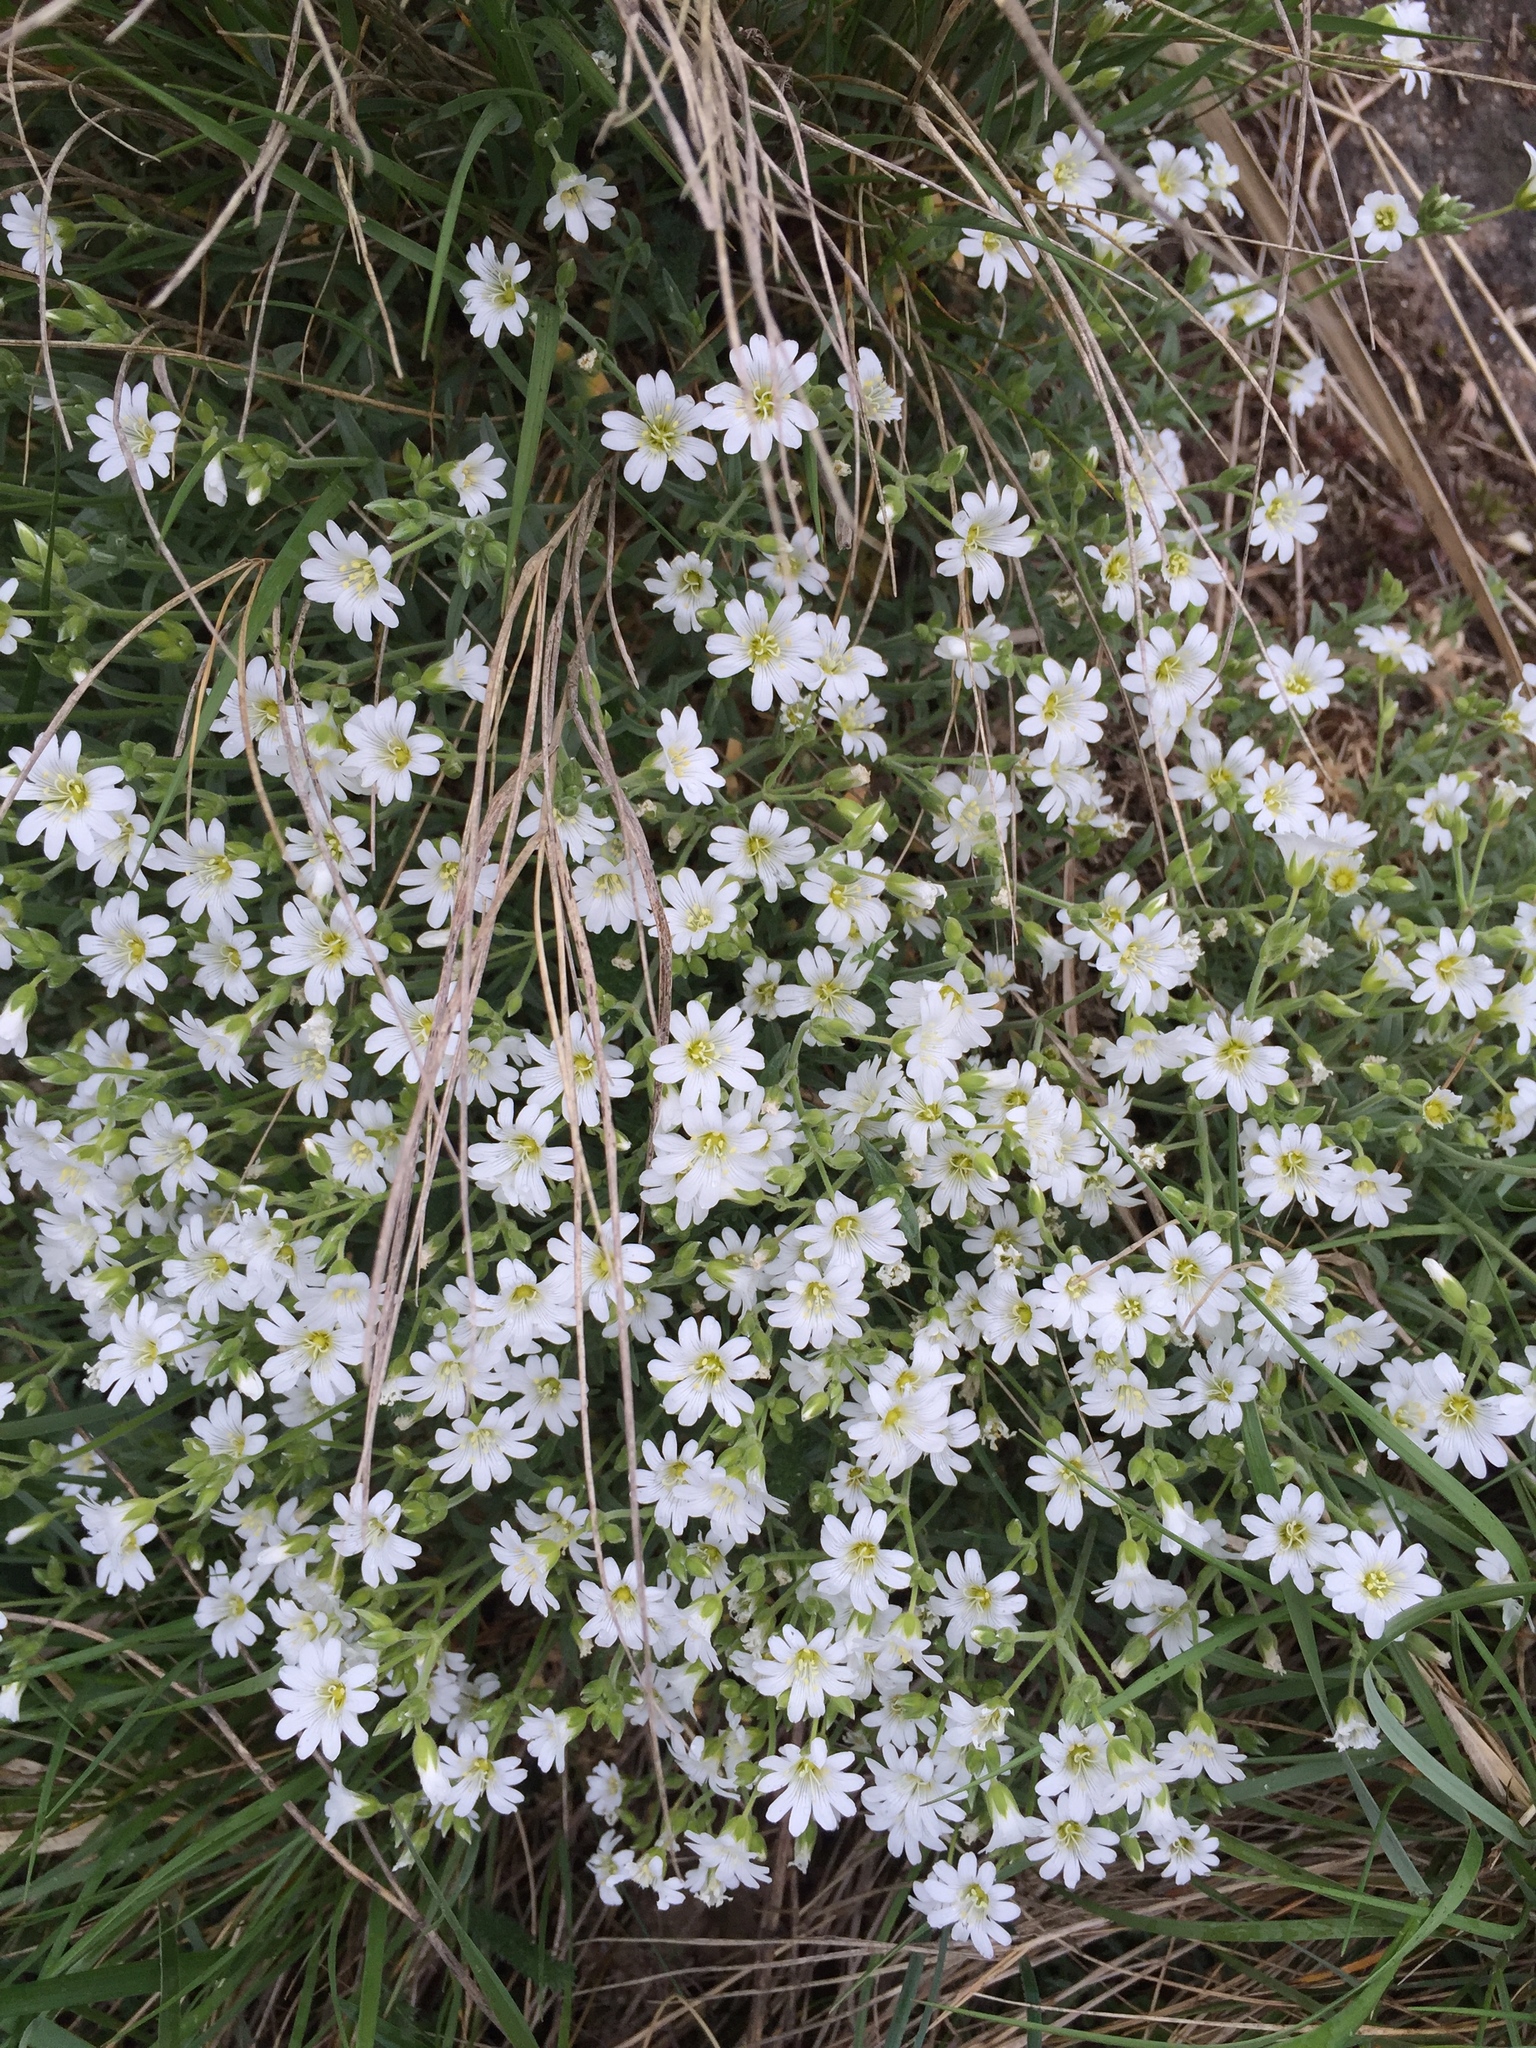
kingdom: Plantae
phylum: Tracheophyta
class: Magnoliopsida
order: Caryophyllales
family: Caryophyllaceae
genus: Cerastium
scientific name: Cerastium arvense
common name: Field mouse-ear
